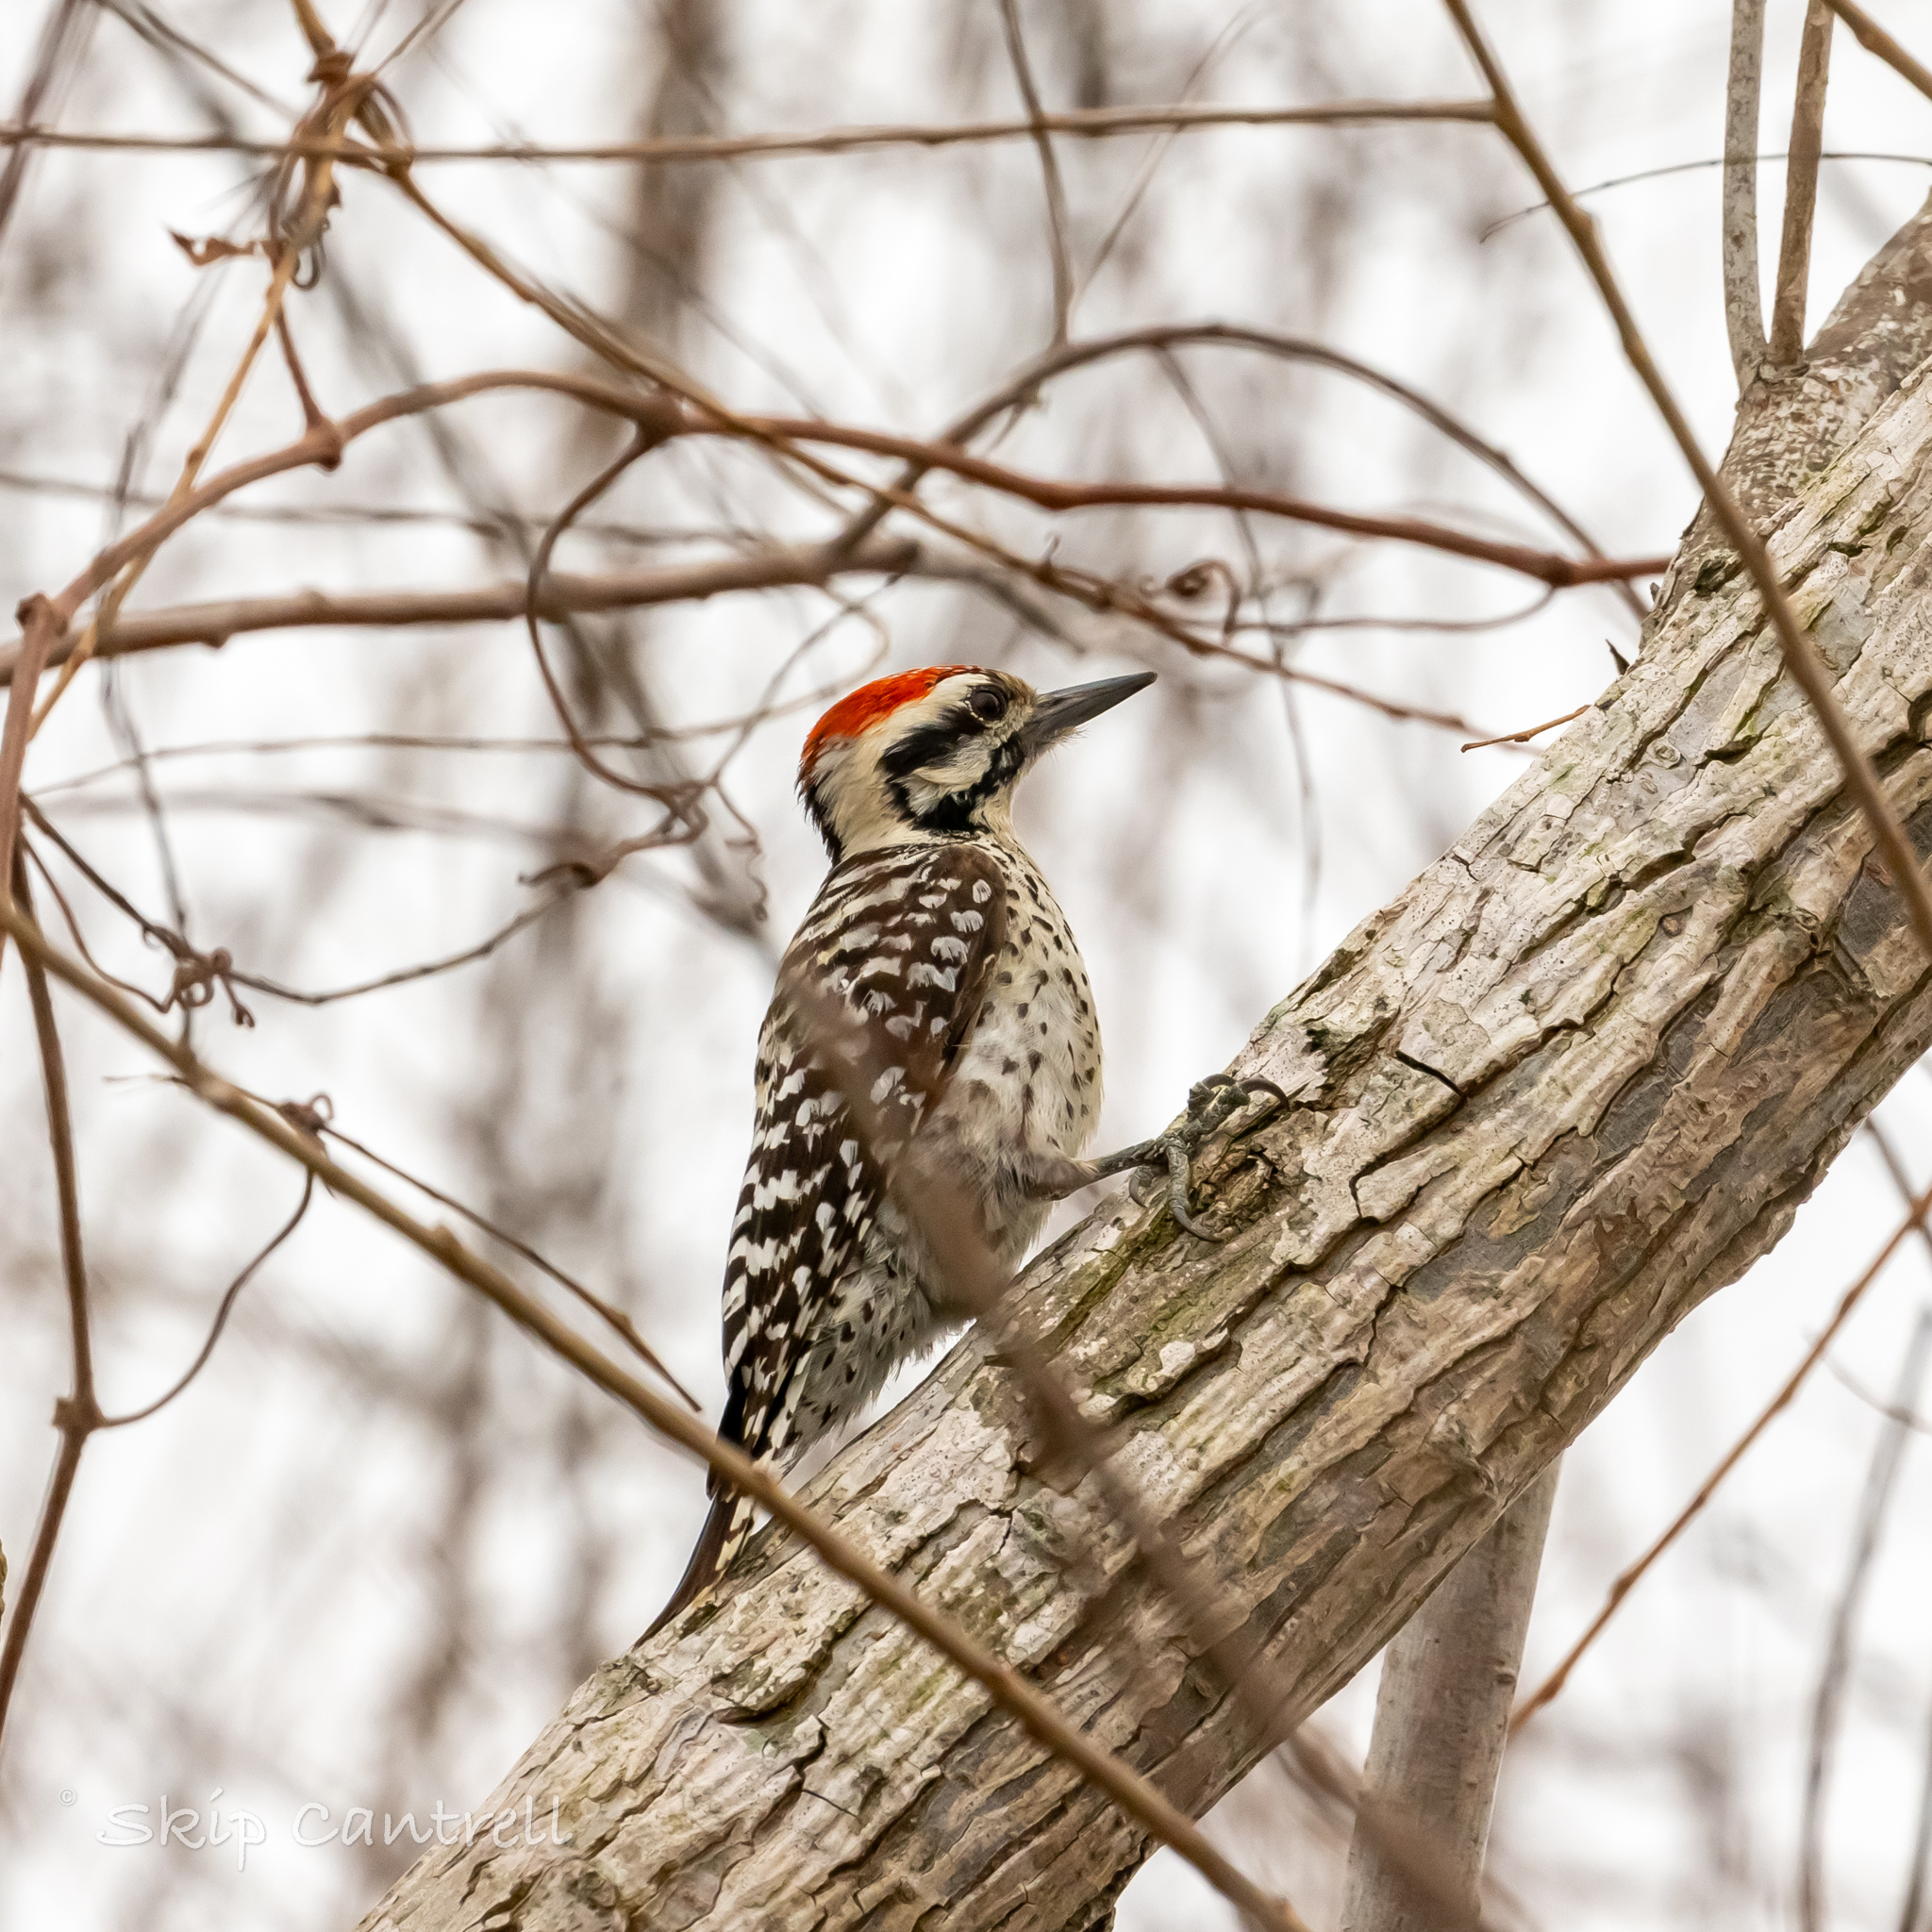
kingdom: Animalia
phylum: Chordata
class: Aves
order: Piciformes
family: Picidae
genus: Dryobates
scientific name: Dryobates scalaris
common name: Ladder-backed woodpecker
